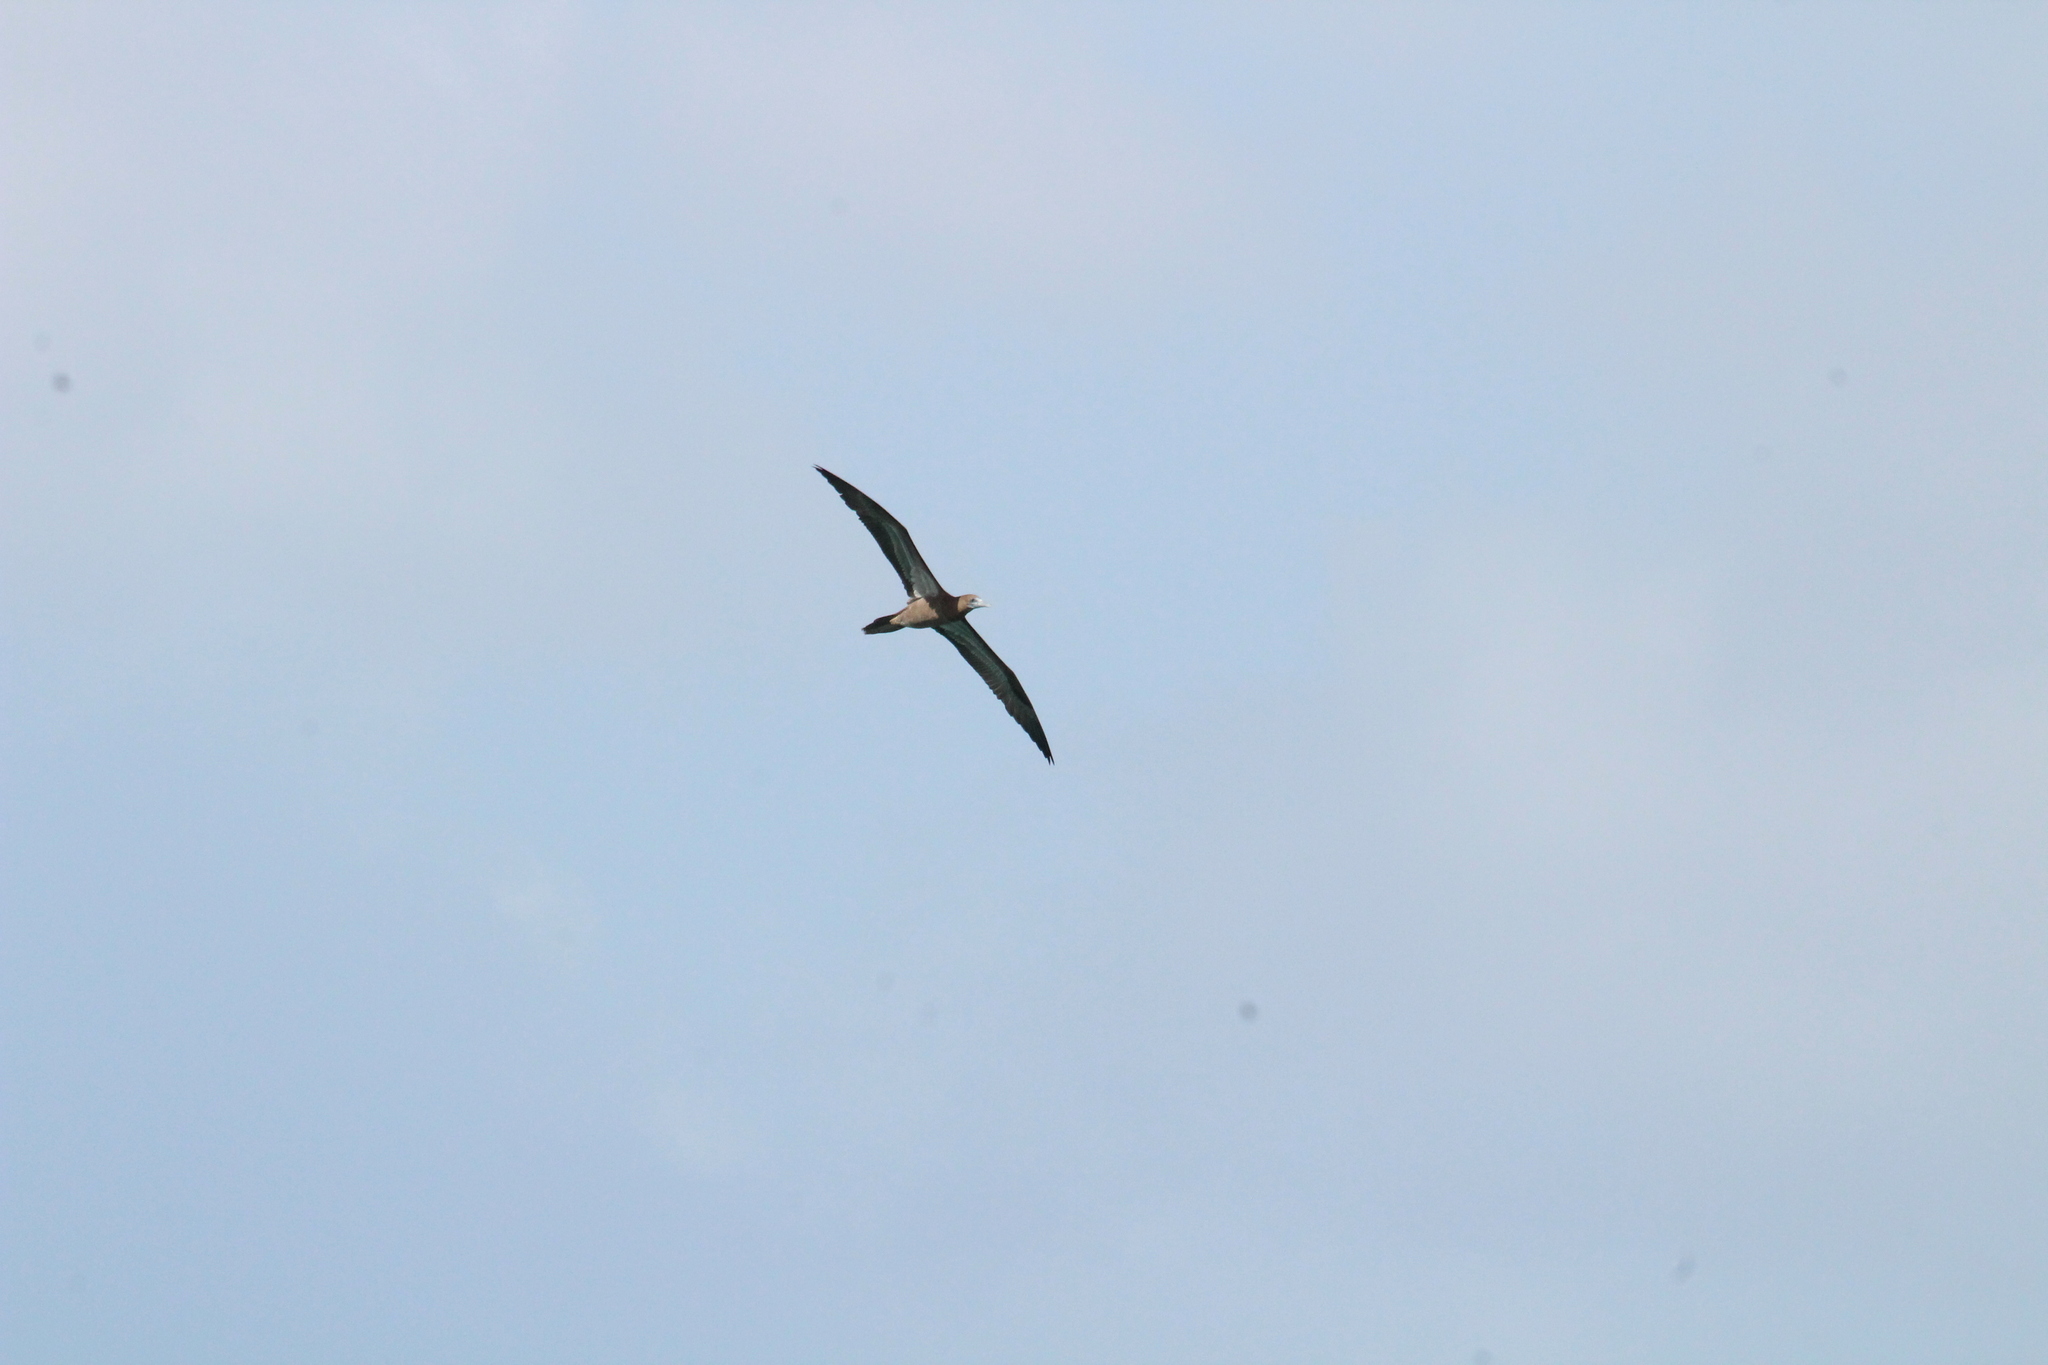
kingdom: Animalia
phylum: Chordata
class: Aves
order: Suliformes
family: Sulidae
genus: Sula
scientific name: Sula leucogaster
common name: Brown booby
